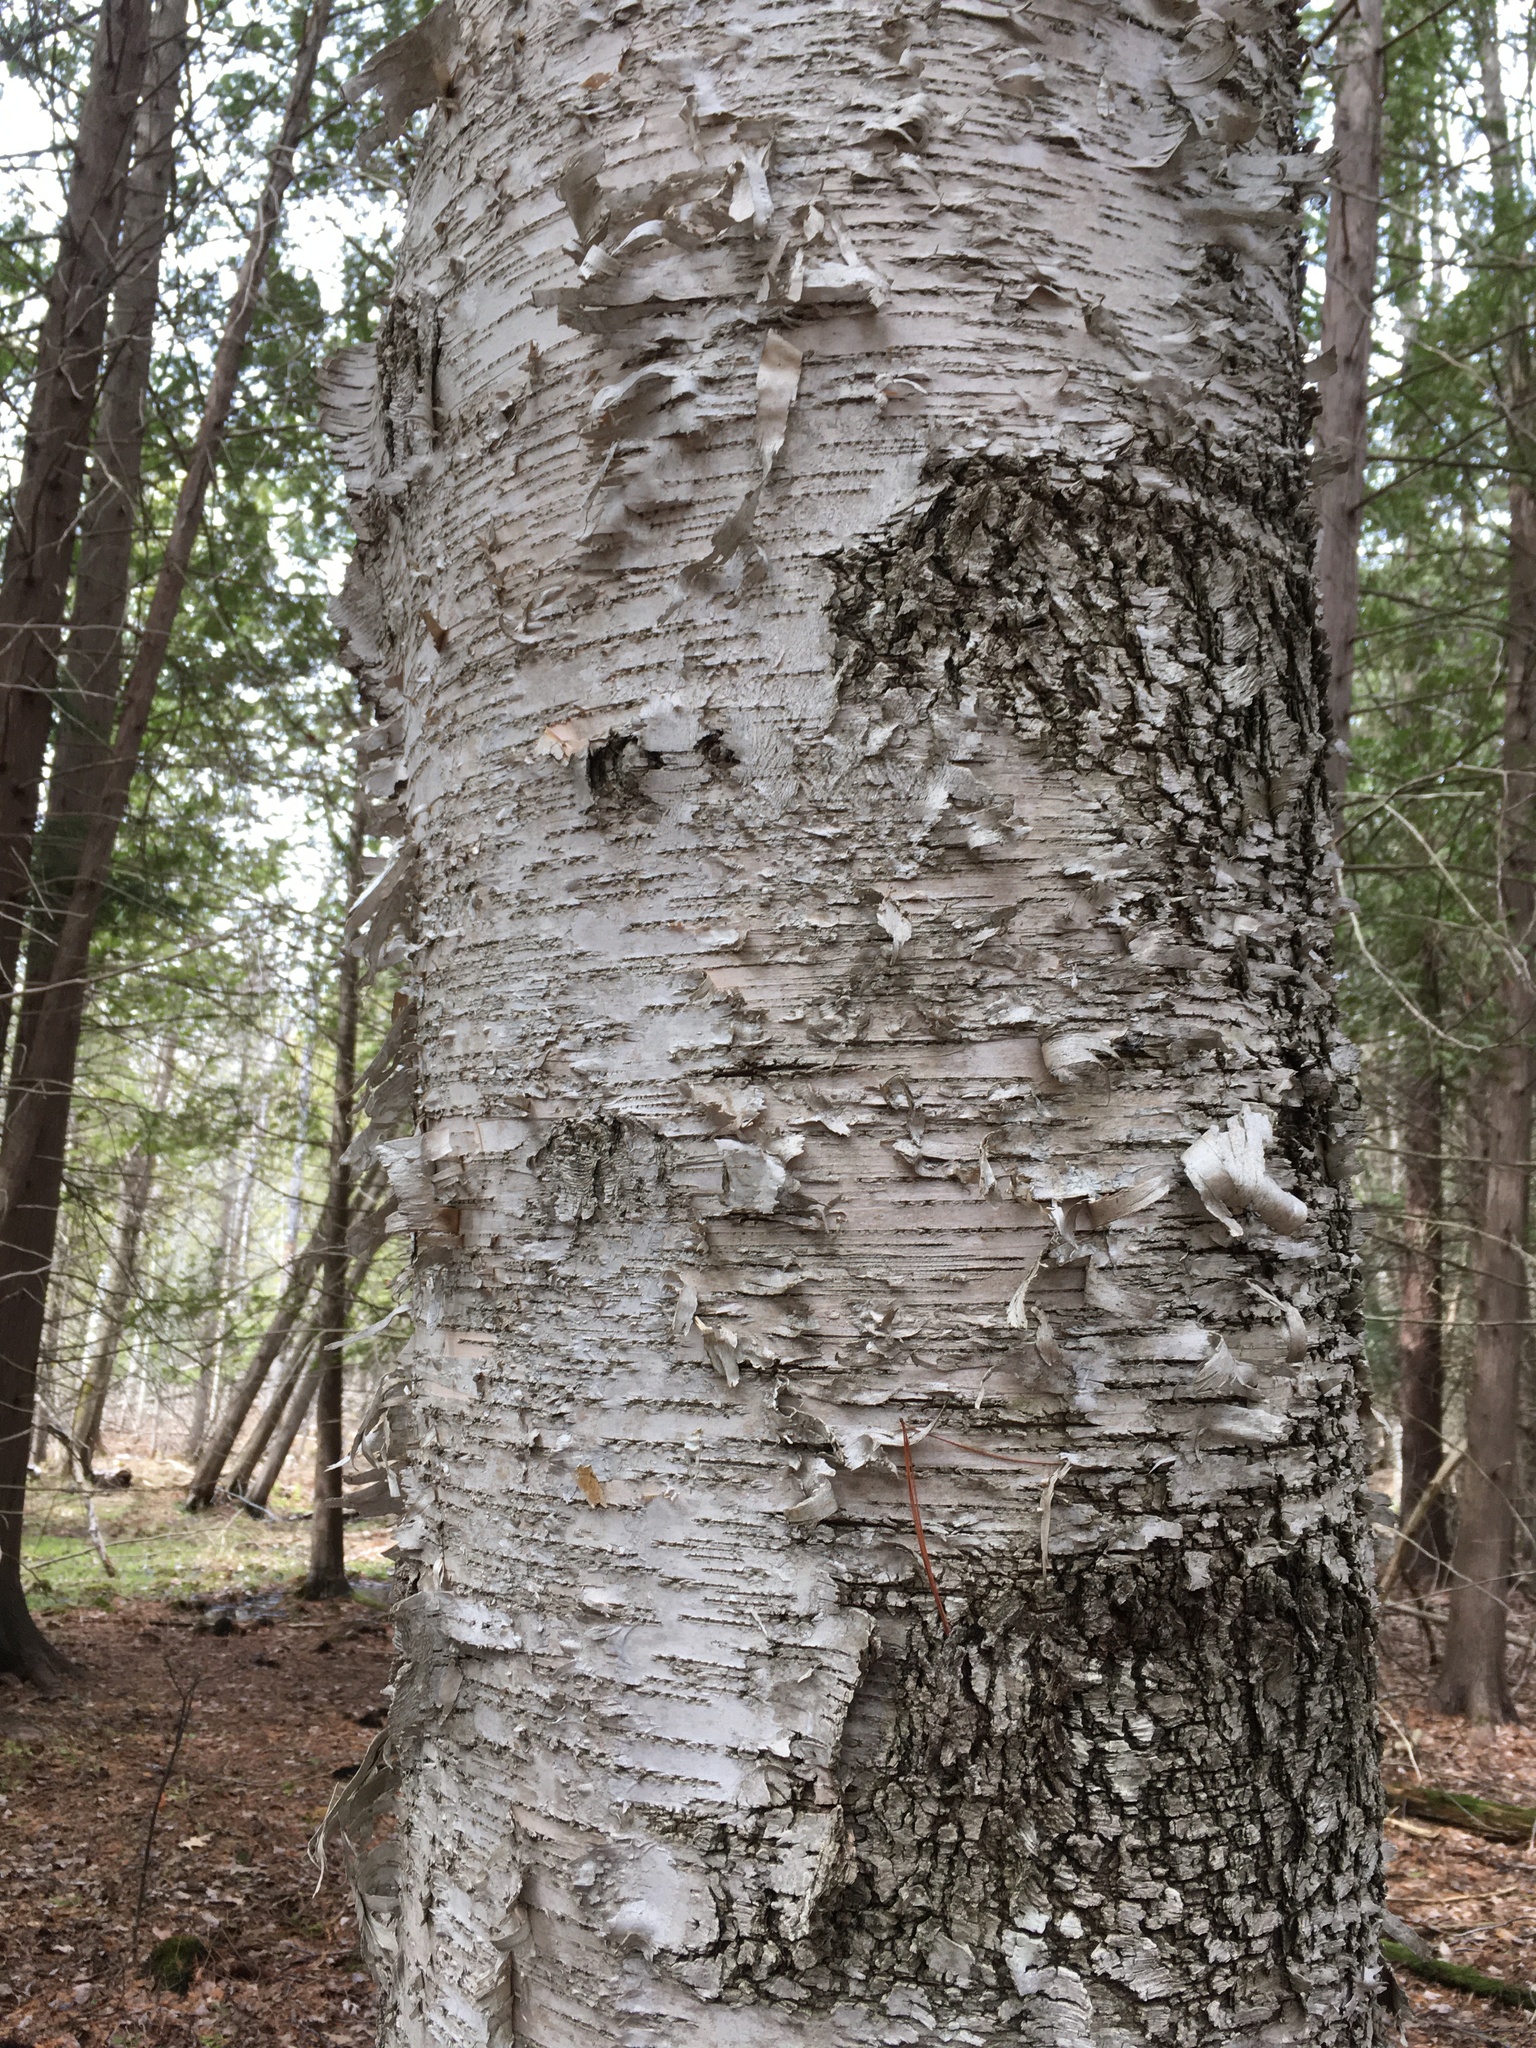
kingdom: Plantae
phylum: Tracheophyta
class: Magnoliopsida
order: Fagales
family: Betulaceae
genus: Betula
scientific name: Betula papyrifera
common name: Paper birch
